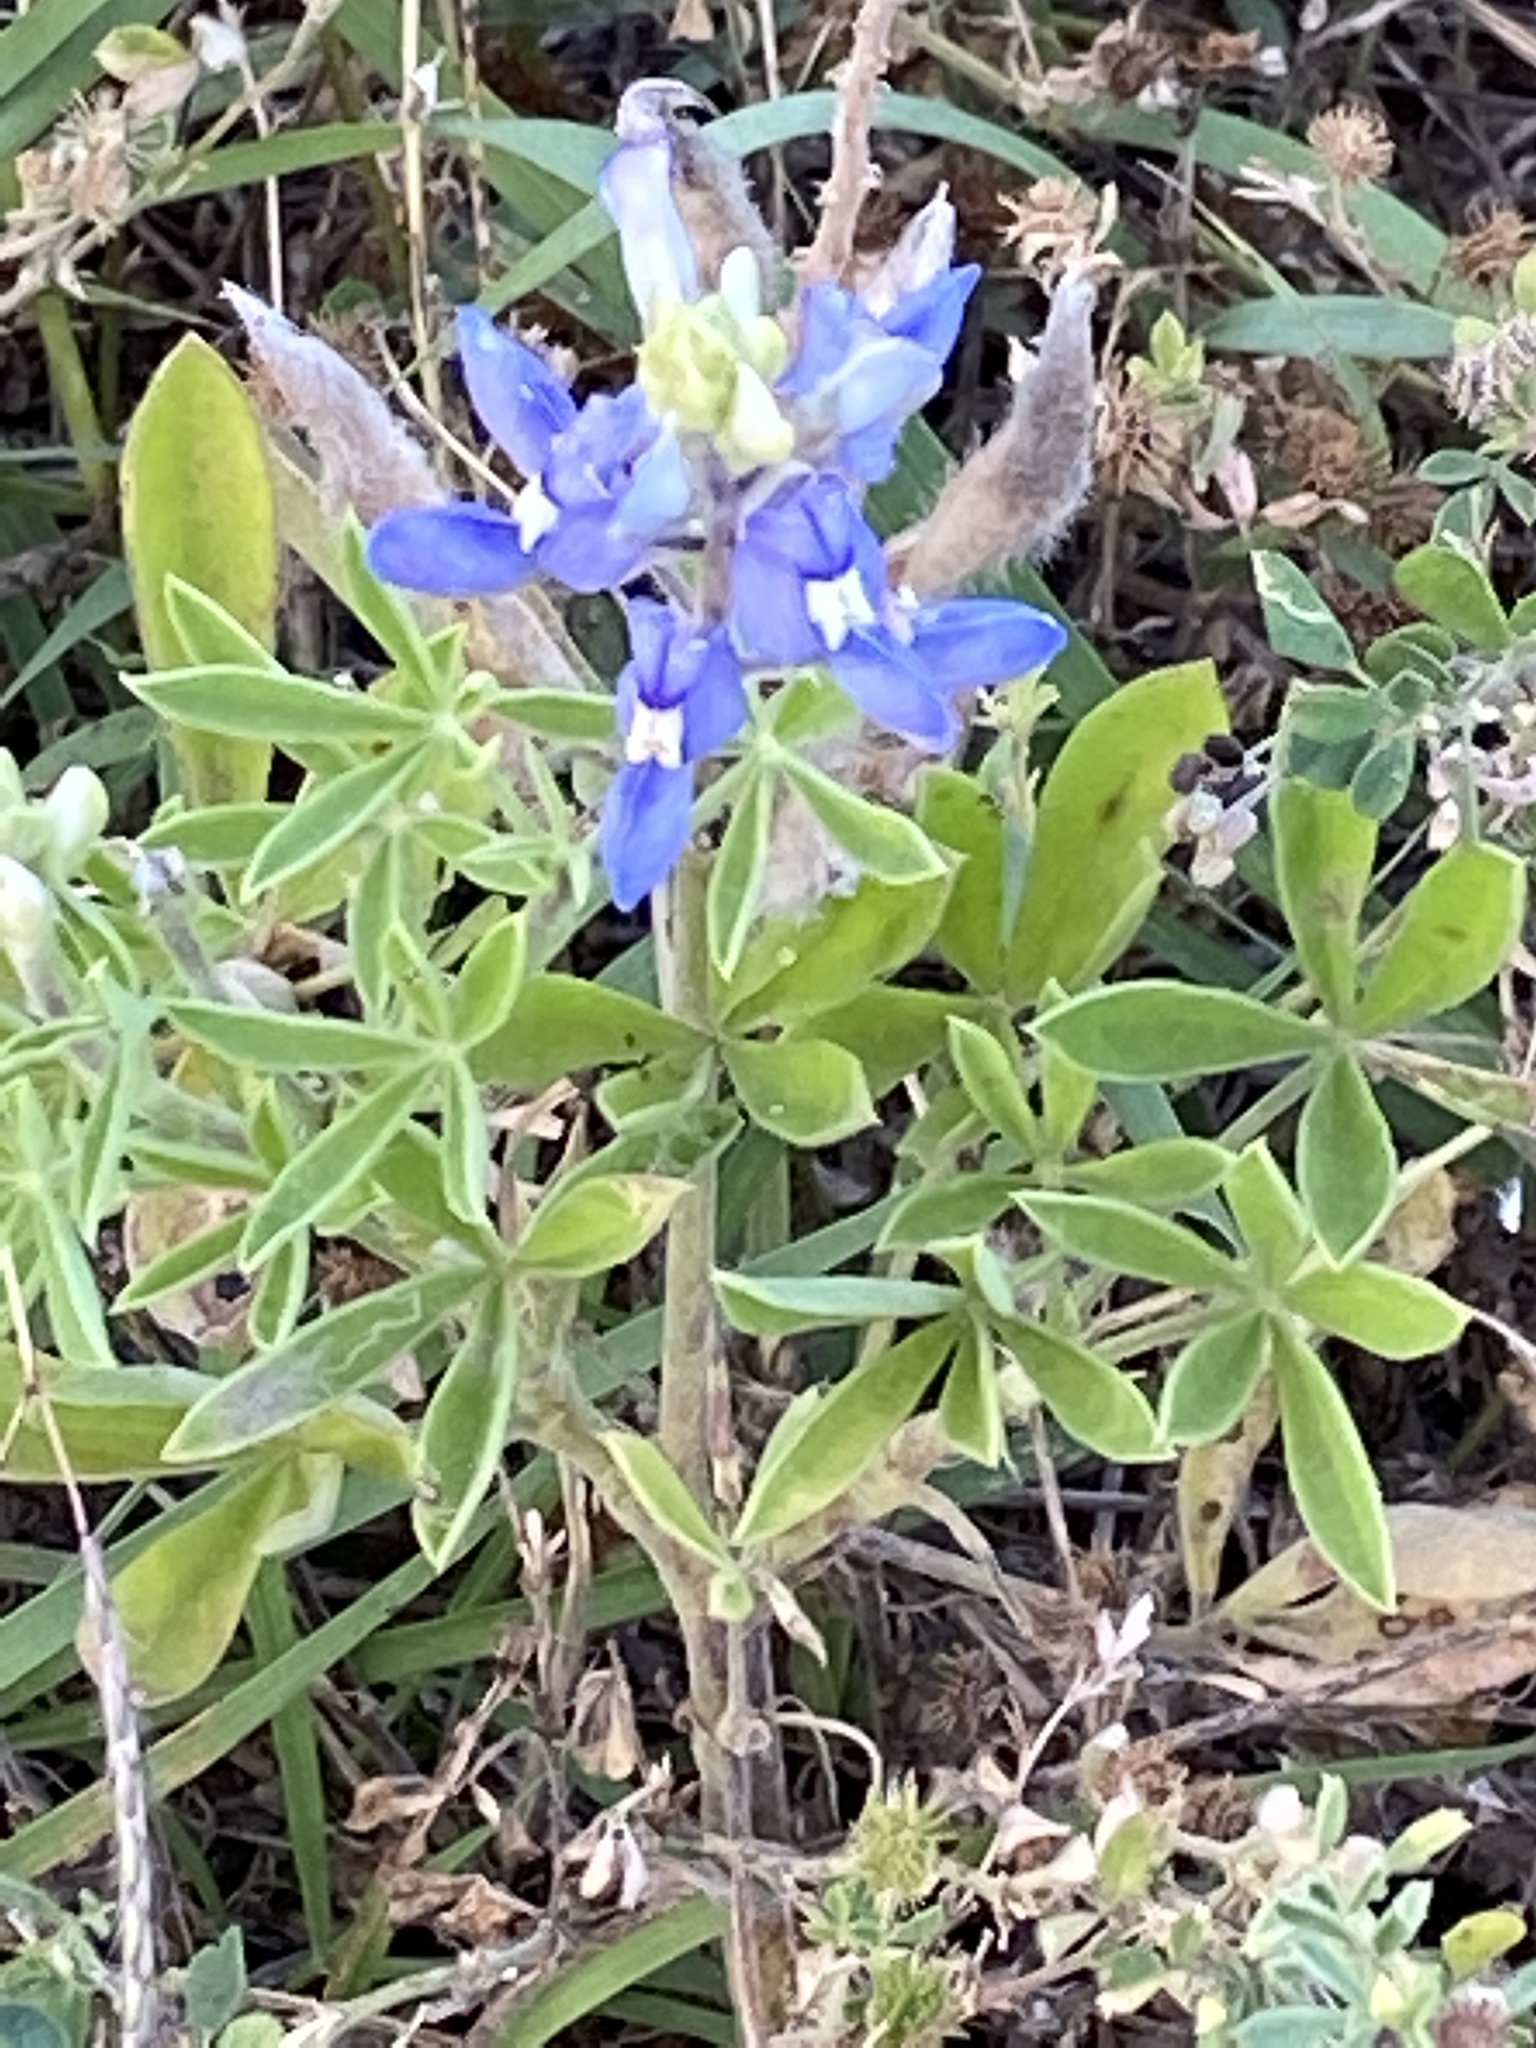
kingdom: Plantae
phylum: Tracheophyta
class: Magnoliopsida
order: Fabales
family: Fabaceae
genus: Lupinus
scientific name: Lupinus texensis
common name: Texas bluebonnet
